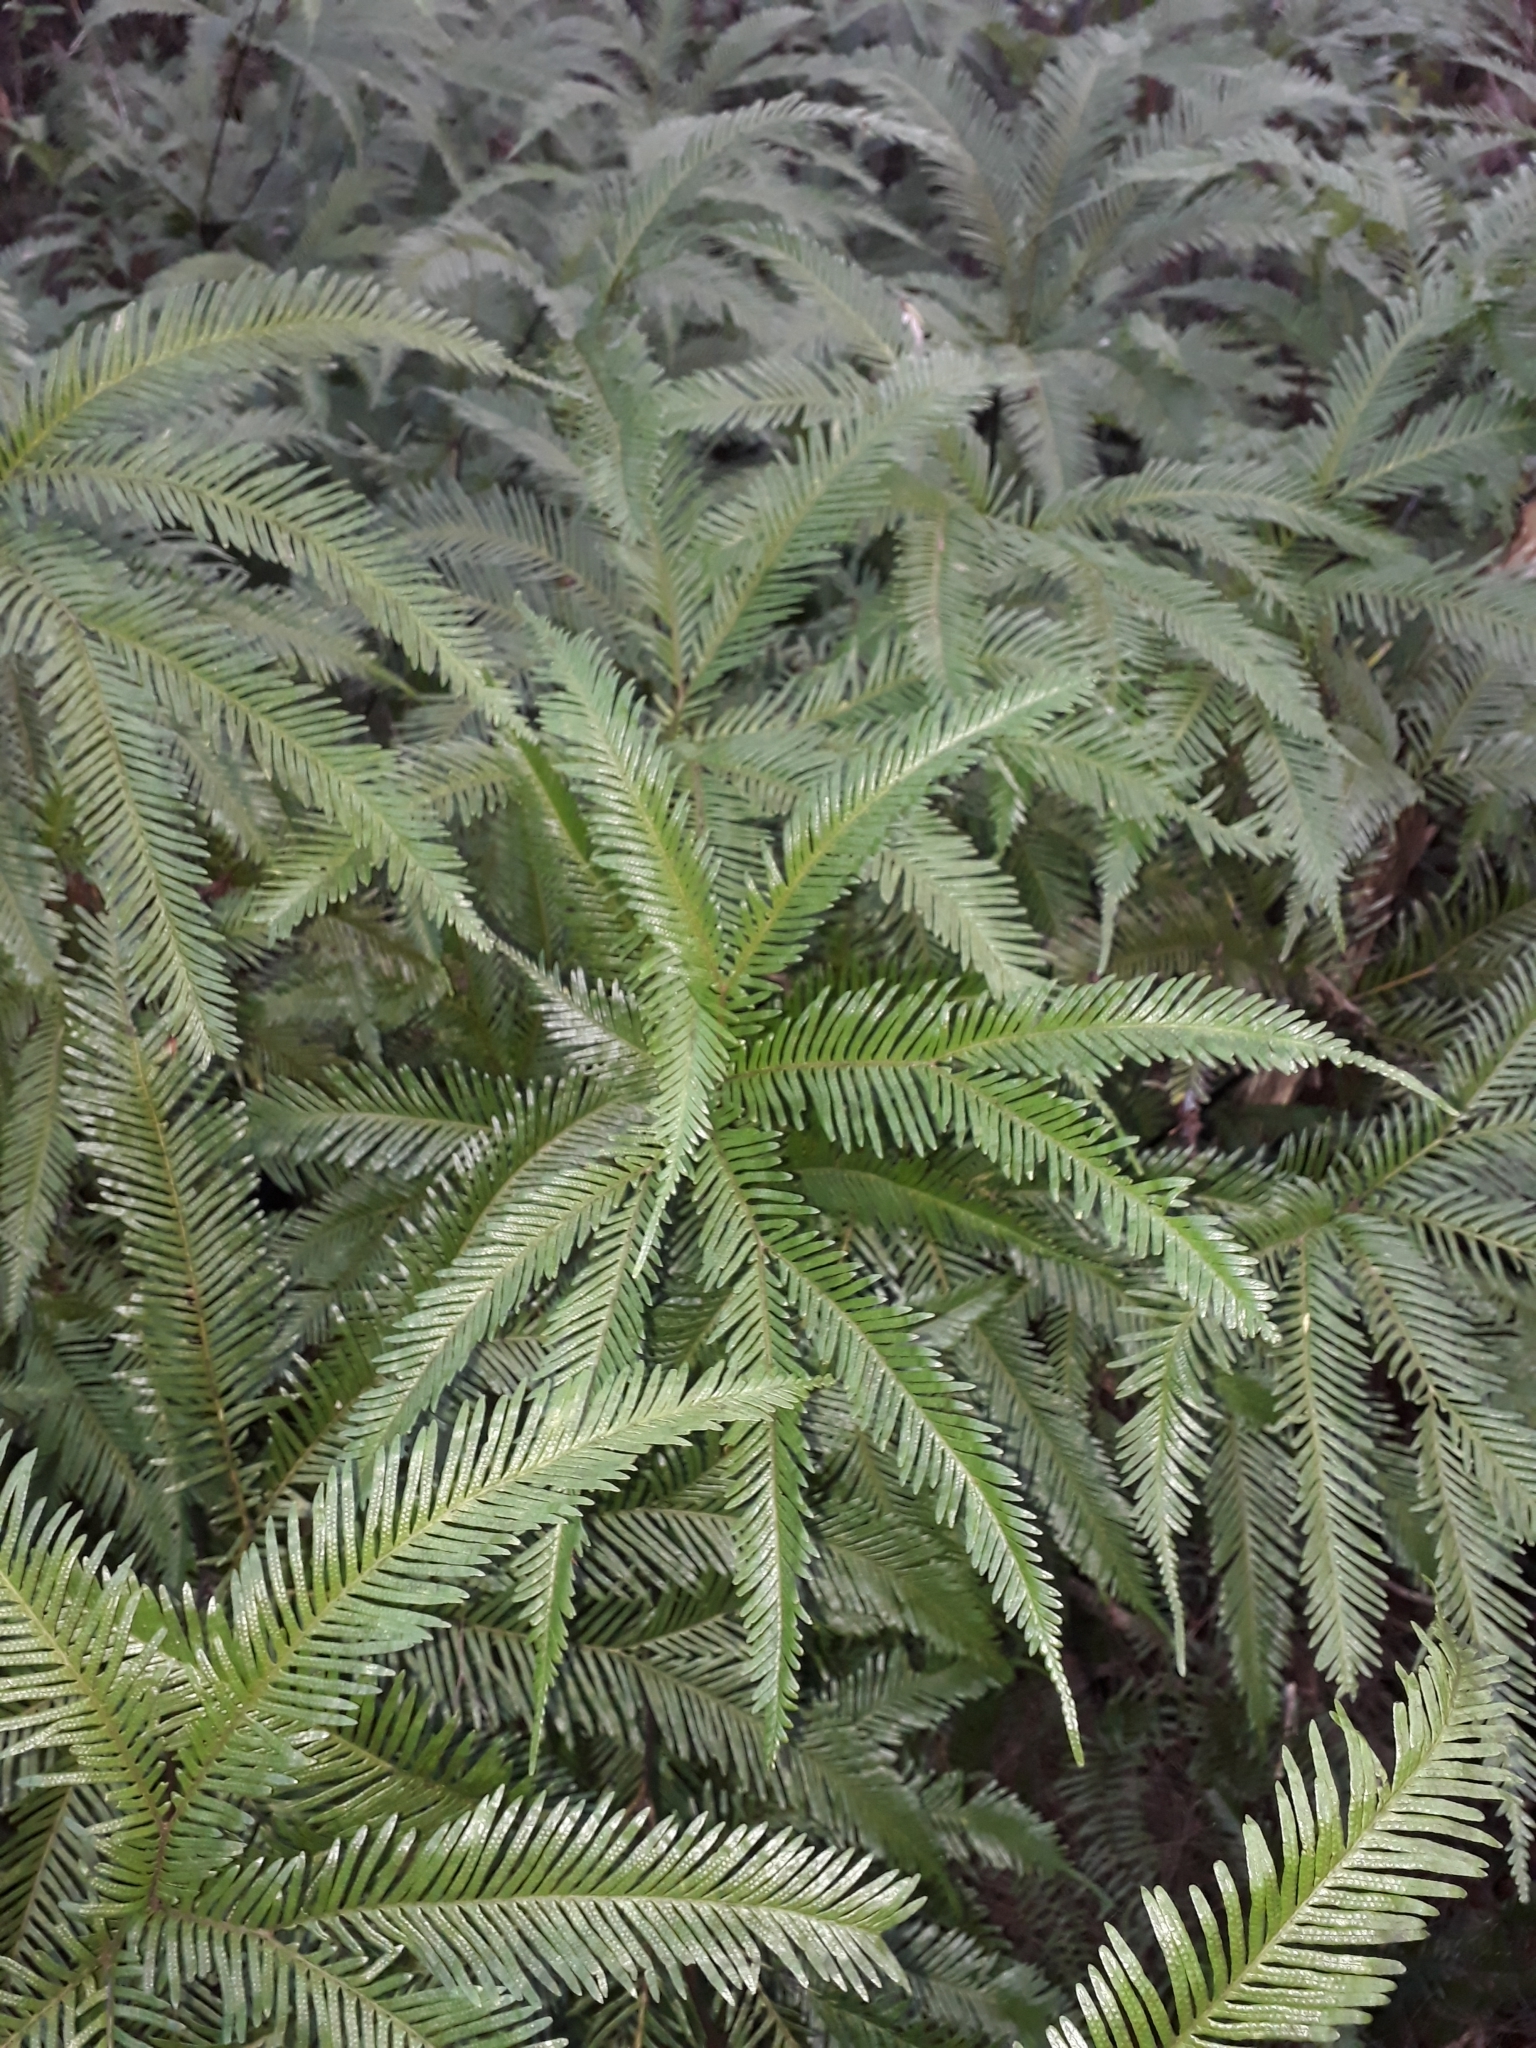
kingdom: Plantae
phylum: Tracheophyta
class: Polypodiopsida
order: Gleicheniales
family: Gleicheniaceae
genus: Sticherus
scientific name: Sticherus flabellatus
